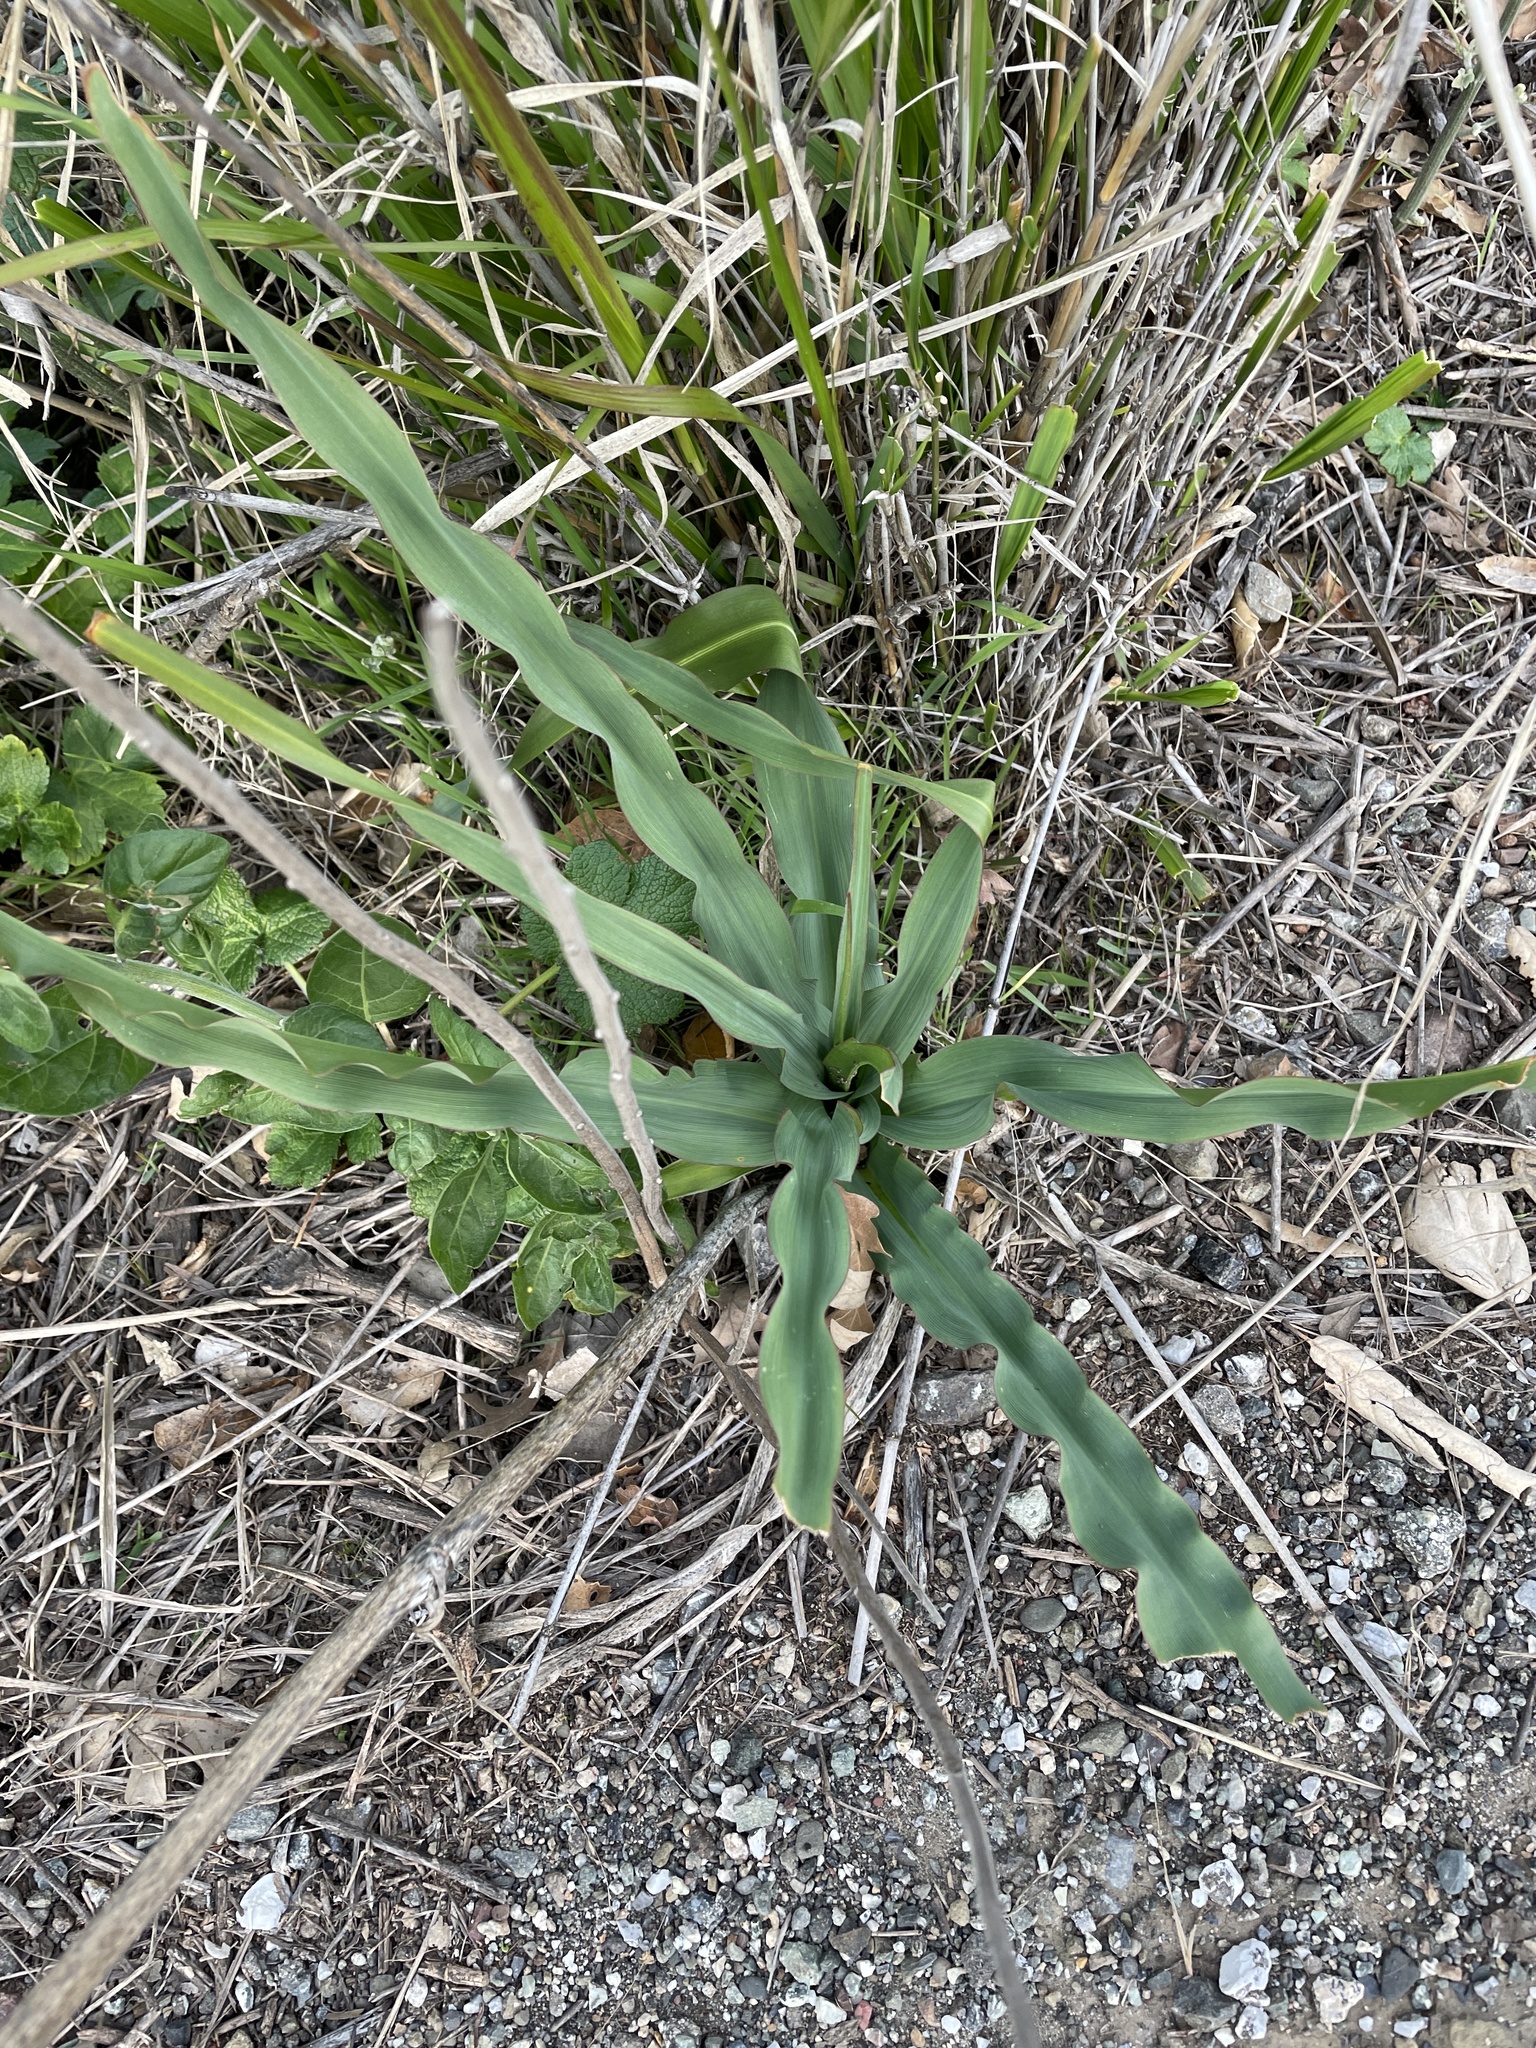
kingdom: Plantae
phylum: Tracheophyta
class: Liliopsida
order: Asparagales
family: Asparagaceae
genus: Chlorogalum
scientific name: Chlorogalum pomeridianum
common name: Amole
